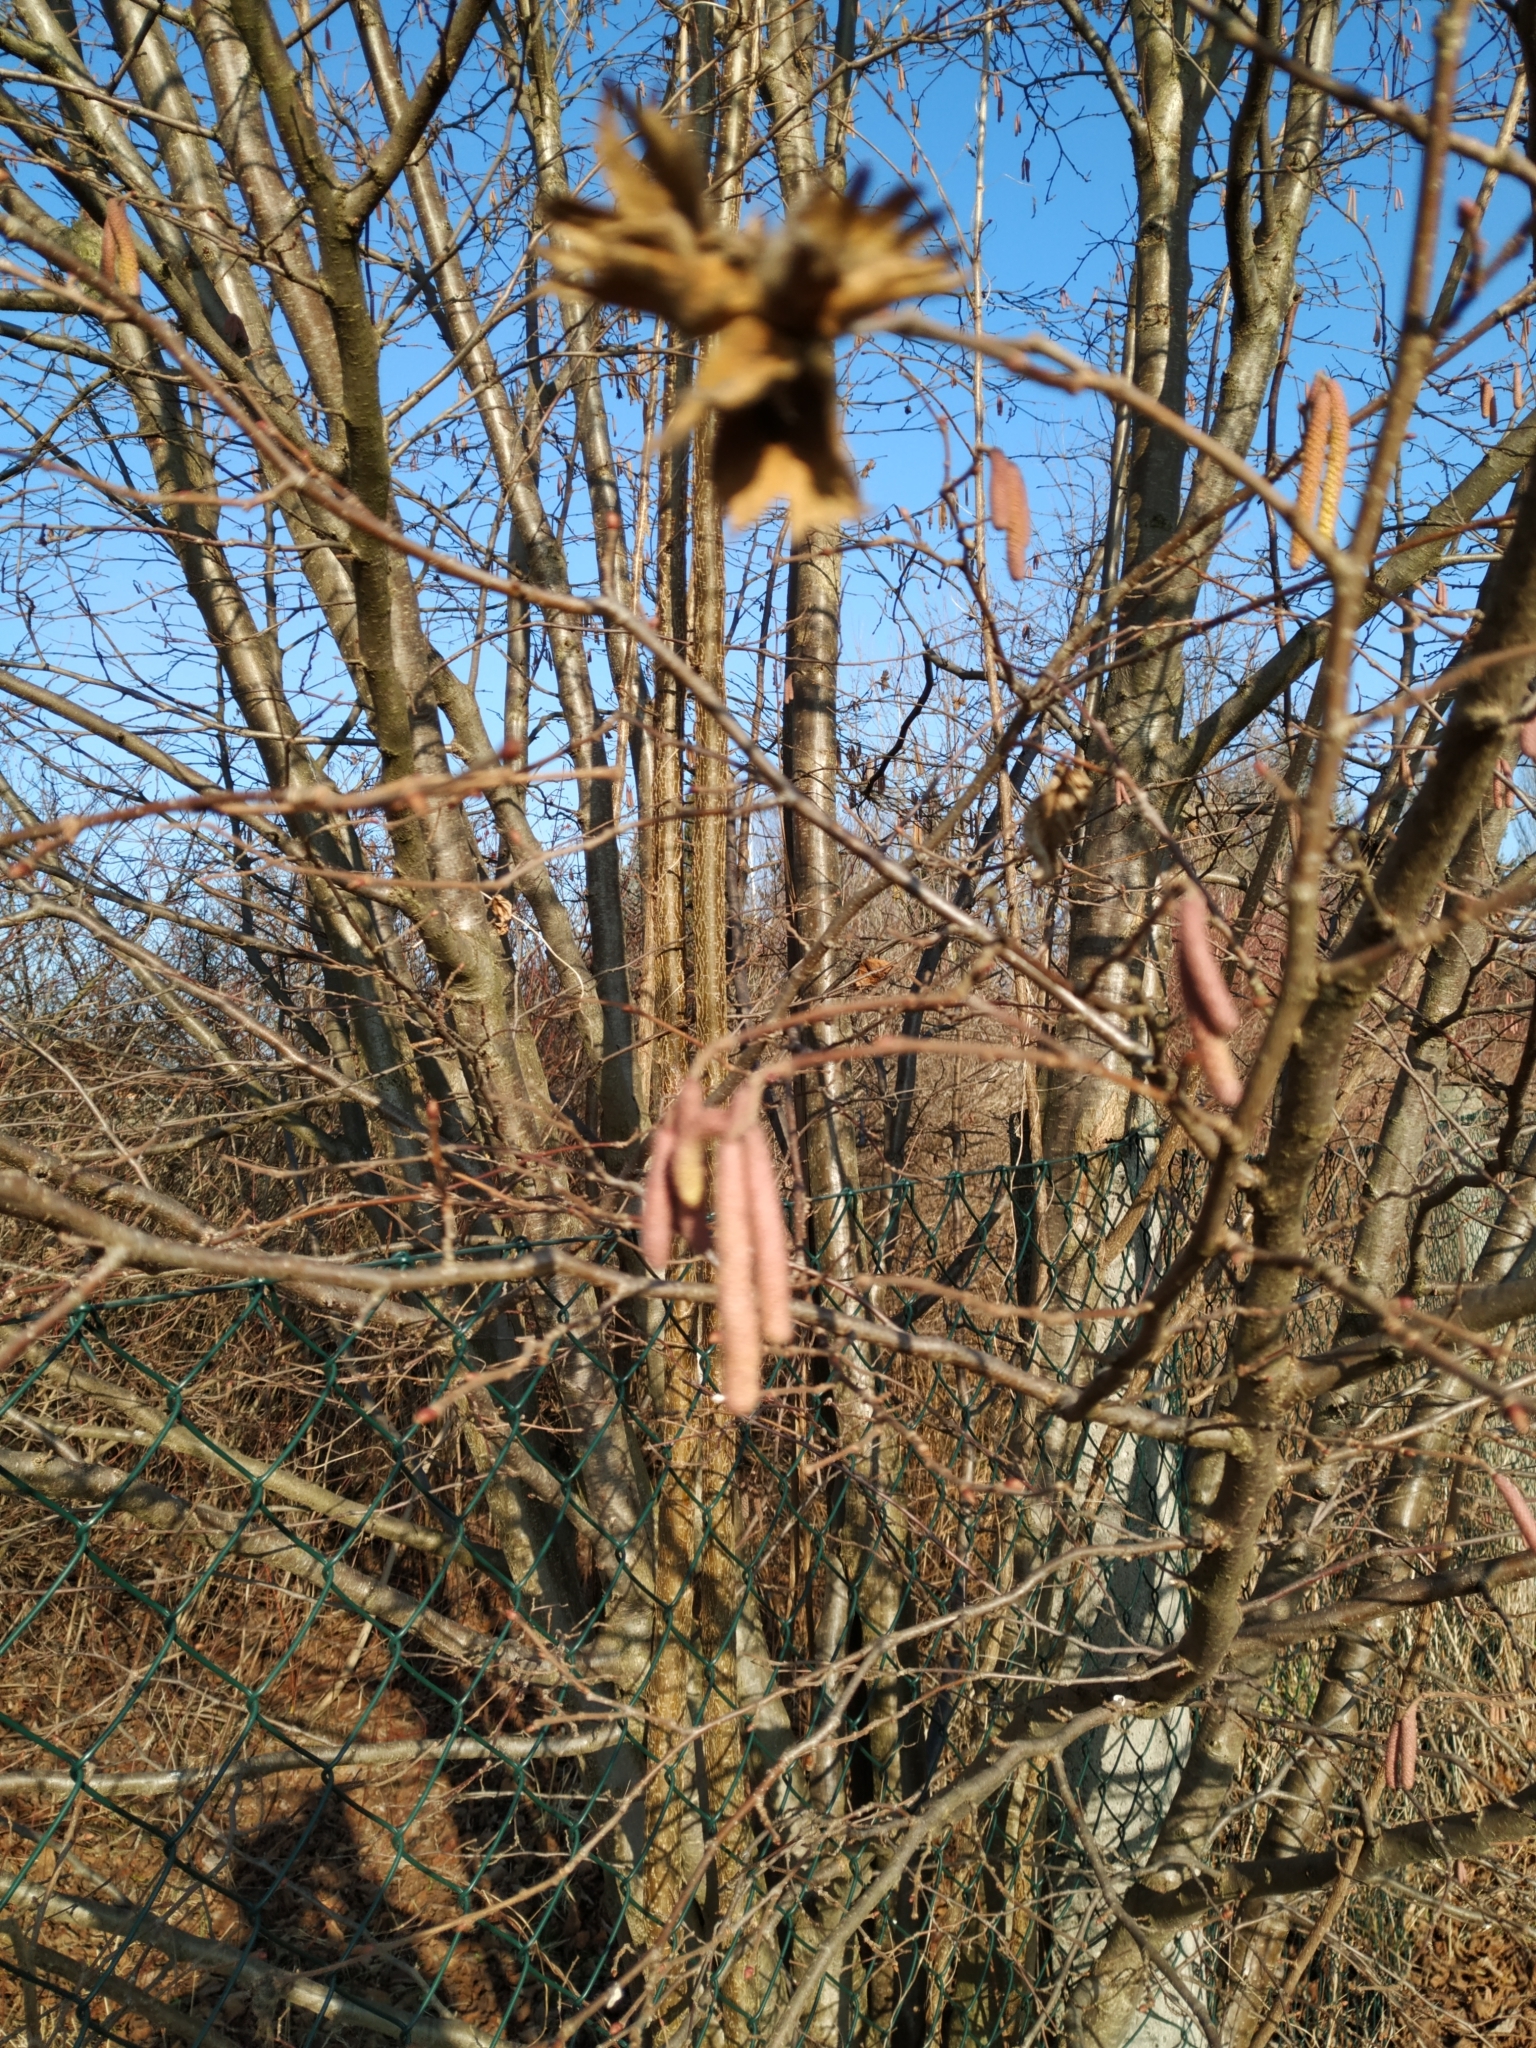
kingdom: Plantae
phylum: Tracheophyta
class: Magnoliopsida
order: Fagales
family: Betulaceae
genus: Corylus
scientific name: Corylus avellana
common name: European hazel
